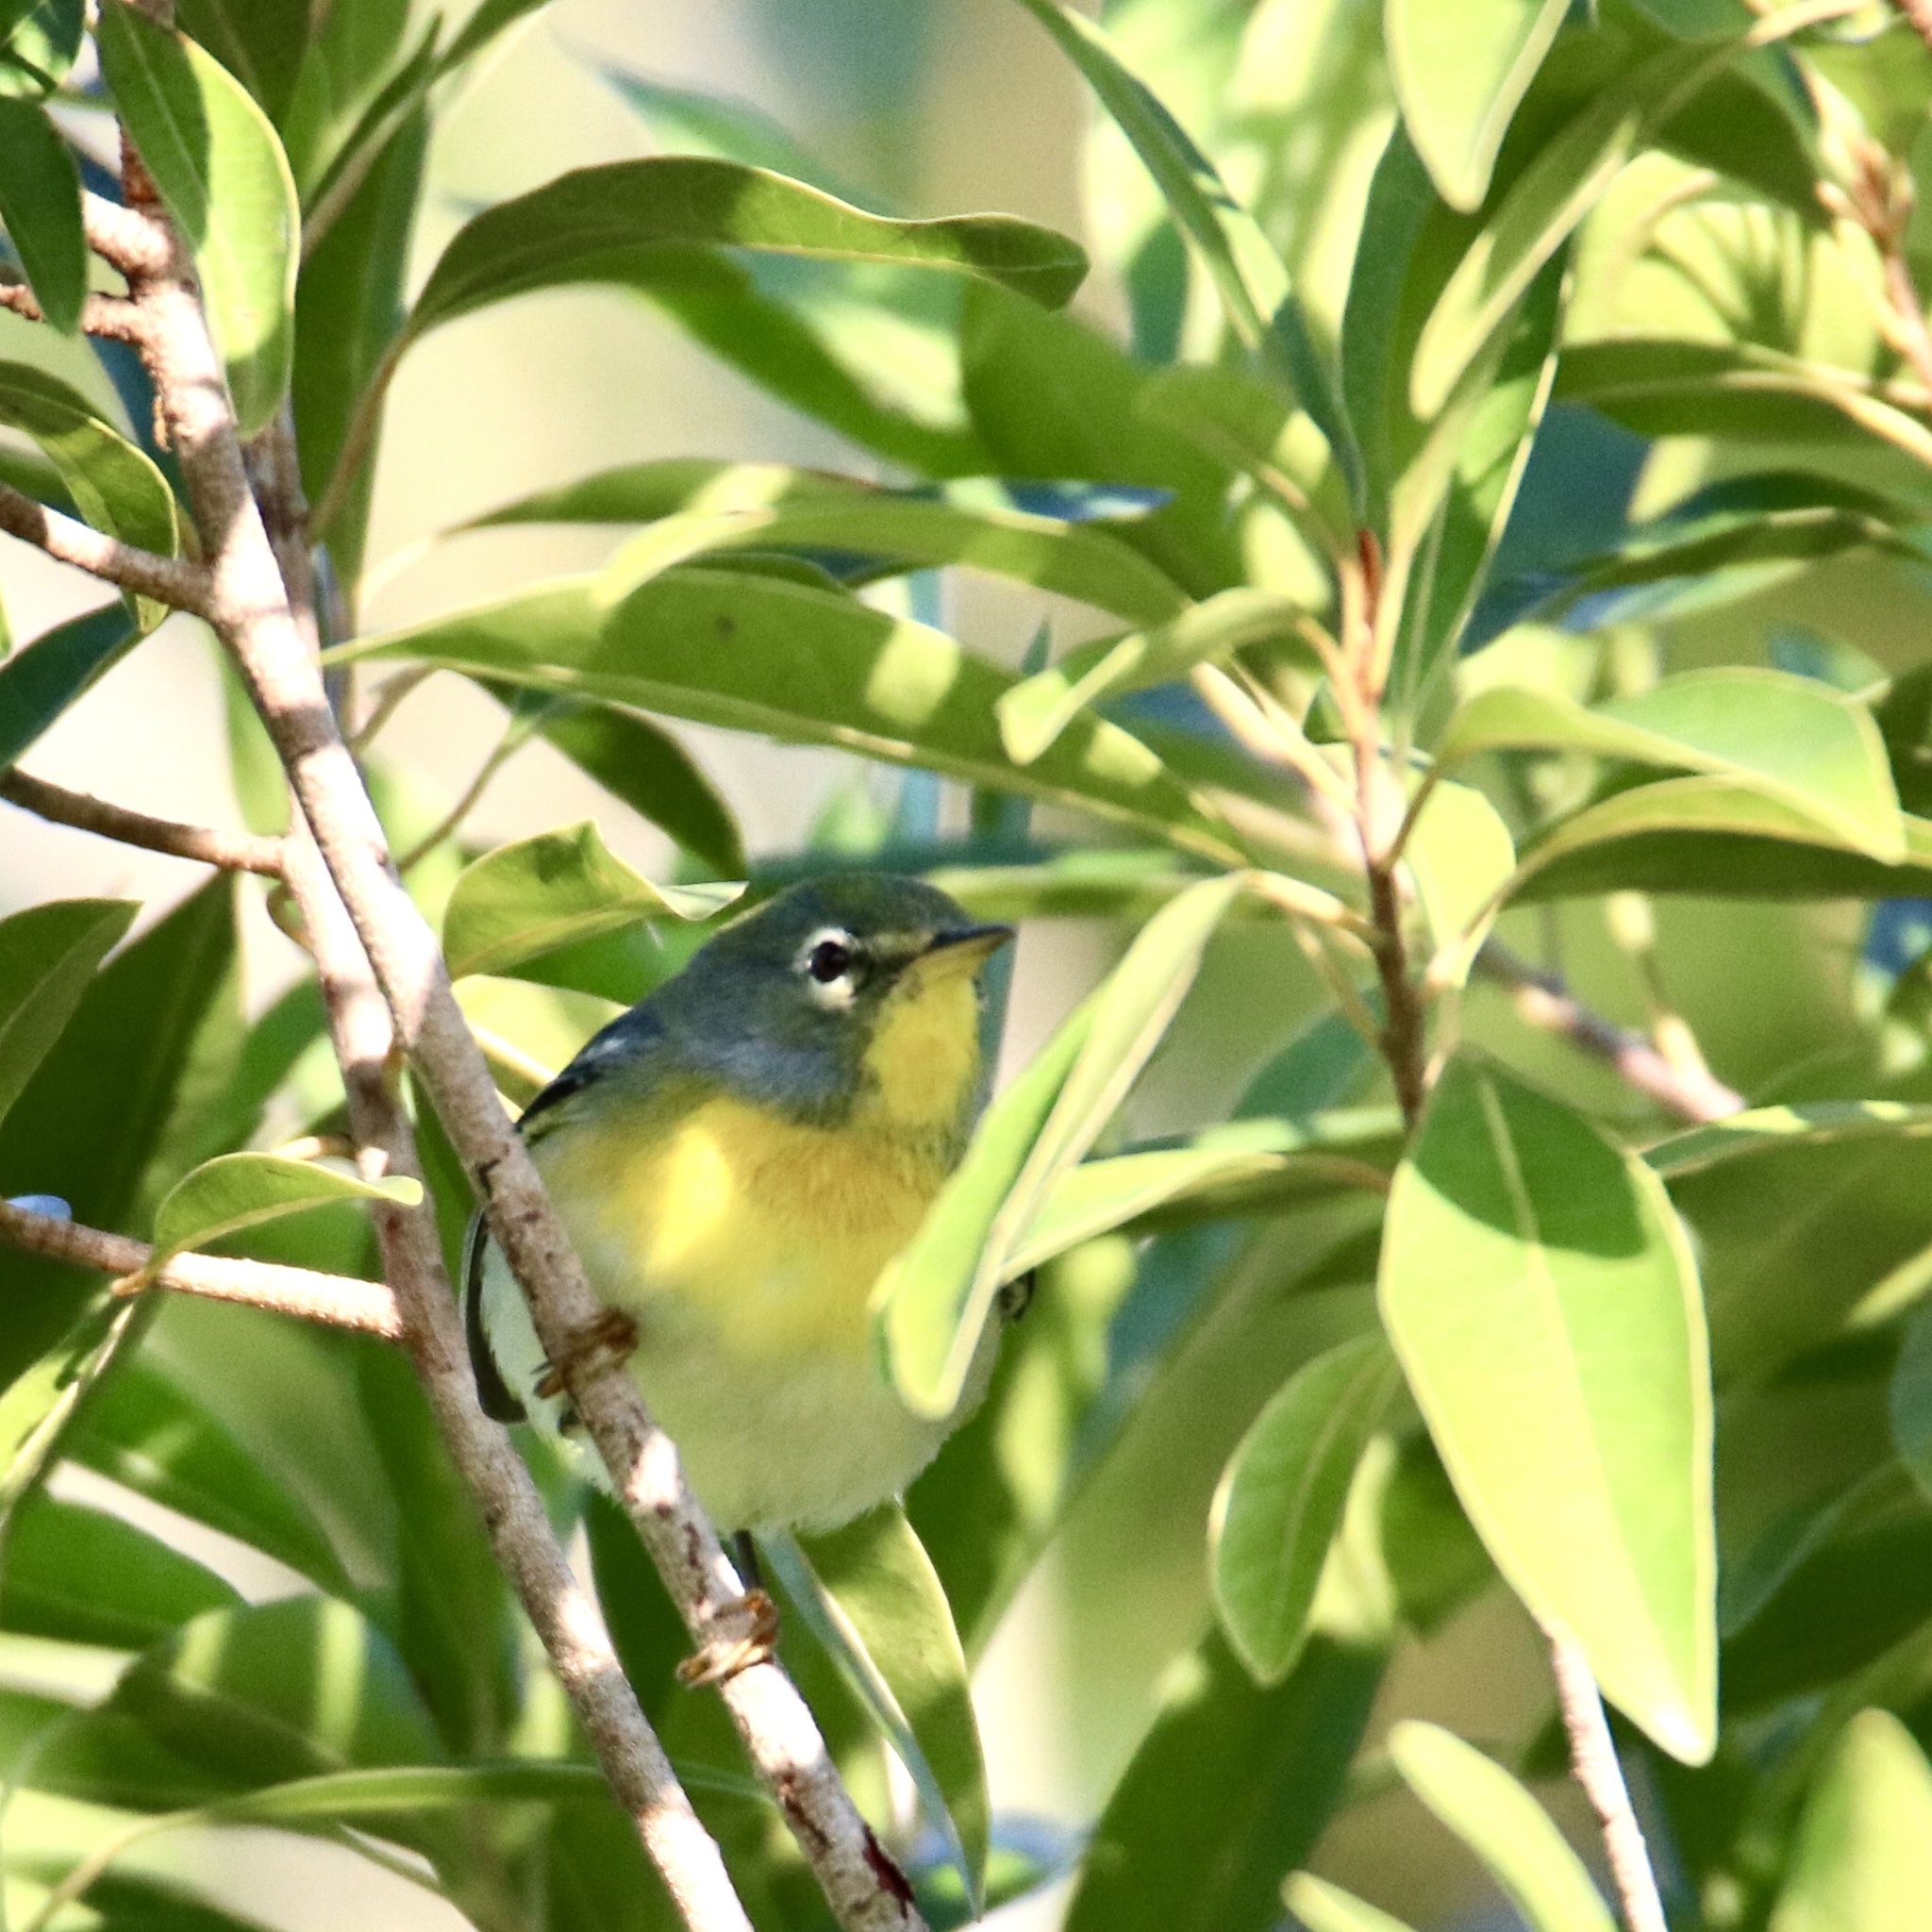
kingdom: Animalia
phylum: Chordata
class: Aves
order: Passeriformes
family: Parulidae
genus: Setophaga
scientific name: Setophaga americana
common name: Northern parula
